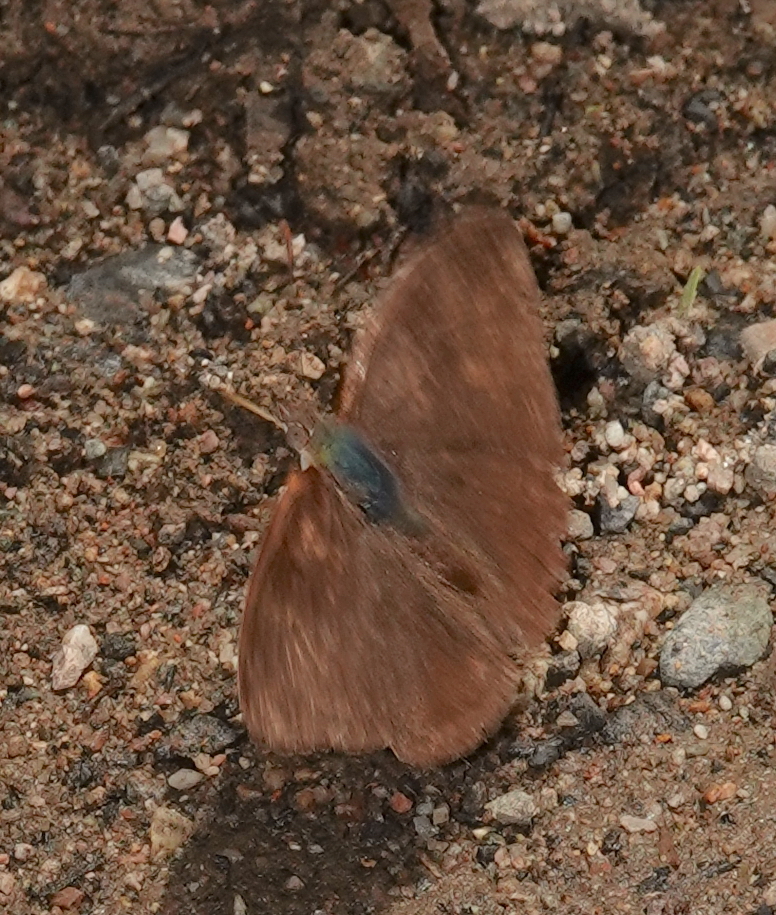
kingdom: Animalia
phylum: Arthropoda
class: Insecta
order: Lepidoptera
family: Nymphalidae
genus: Pyrrhogyra
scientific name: Pyrrhogyra edocla
